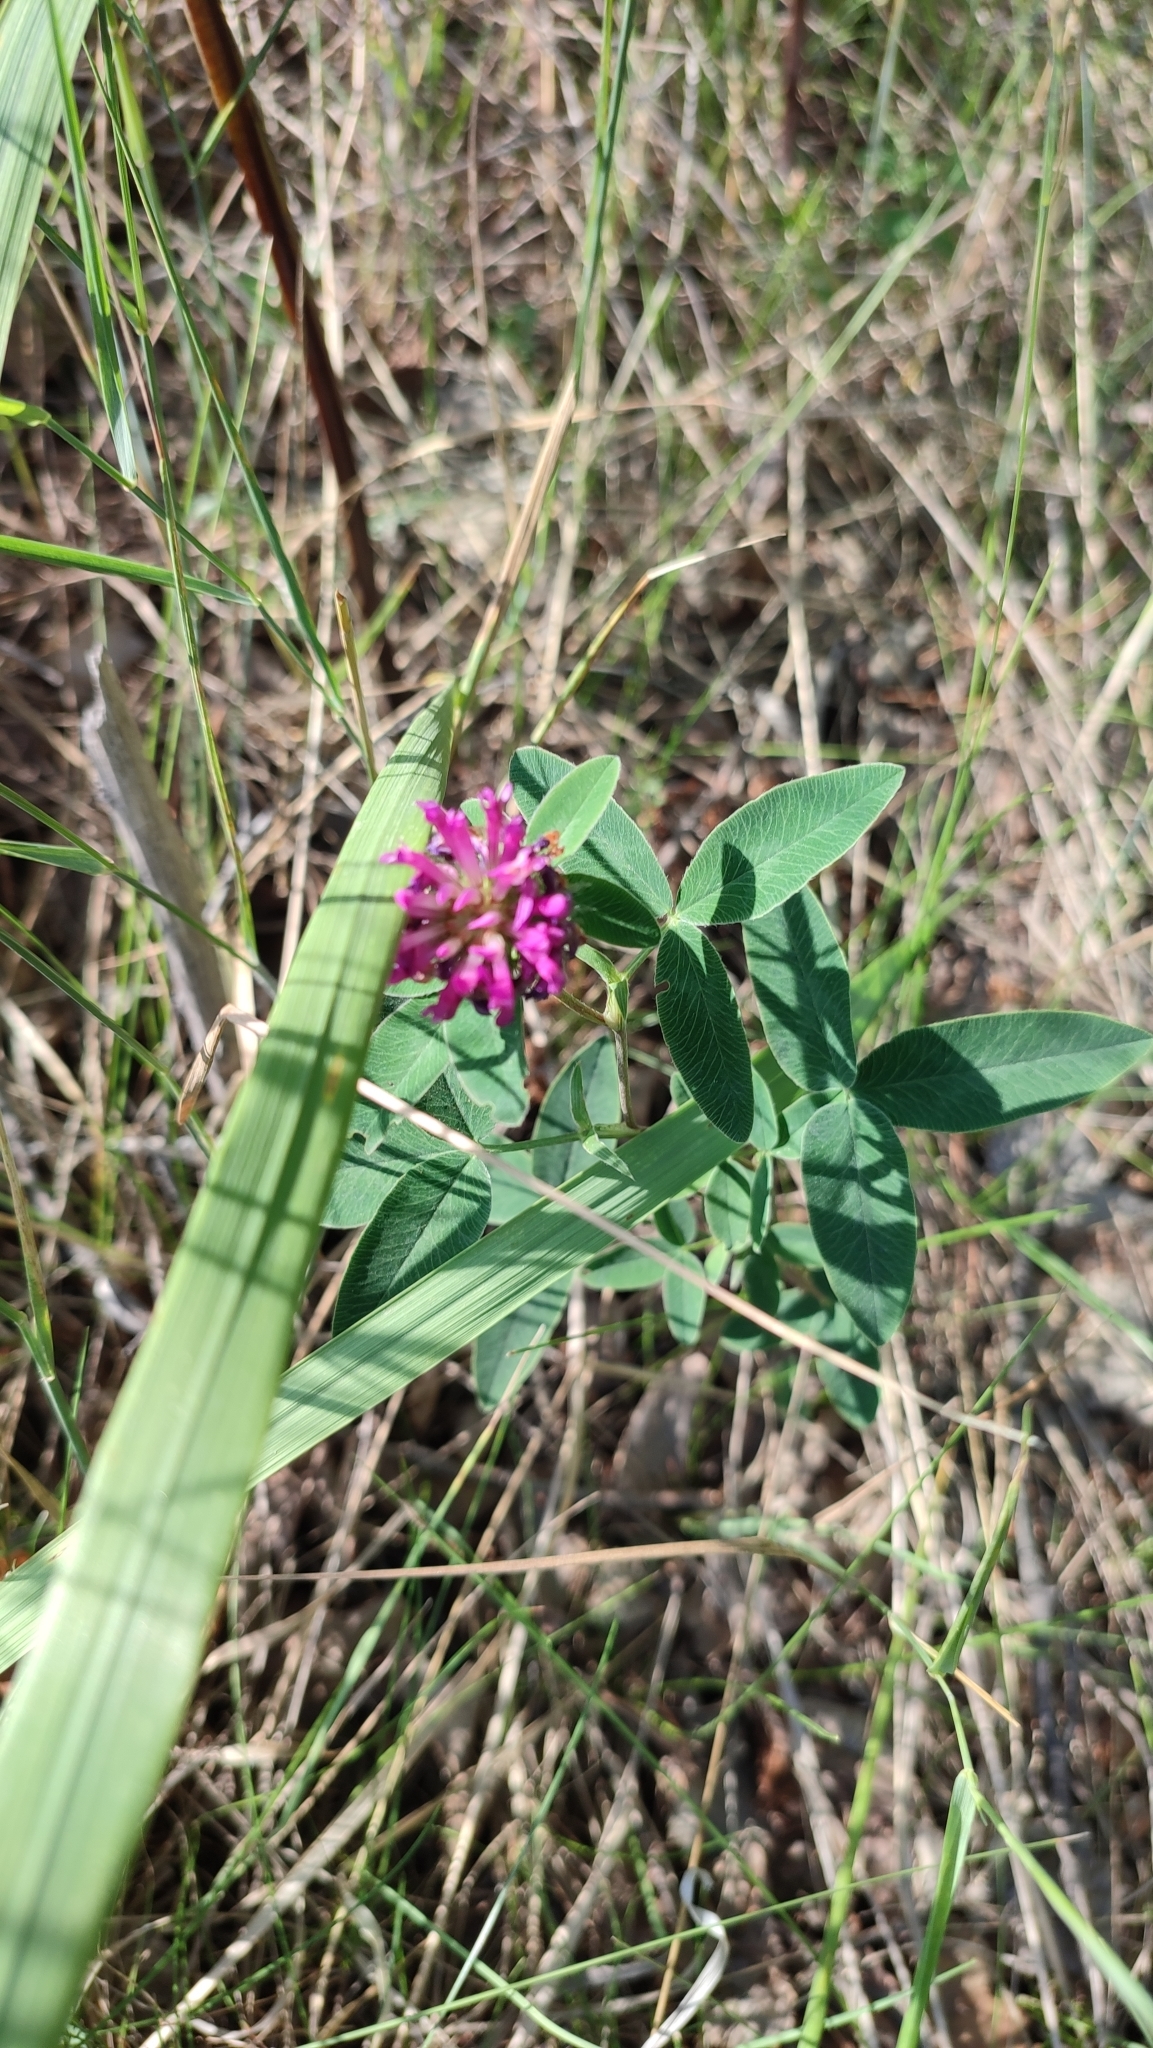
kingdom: Plantae
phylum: Tracheophyta
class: Magnoliopsida
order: Fabales
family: Fabaceae
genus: Trifolium
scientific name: Trifolium medium
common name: Zigzag clover
